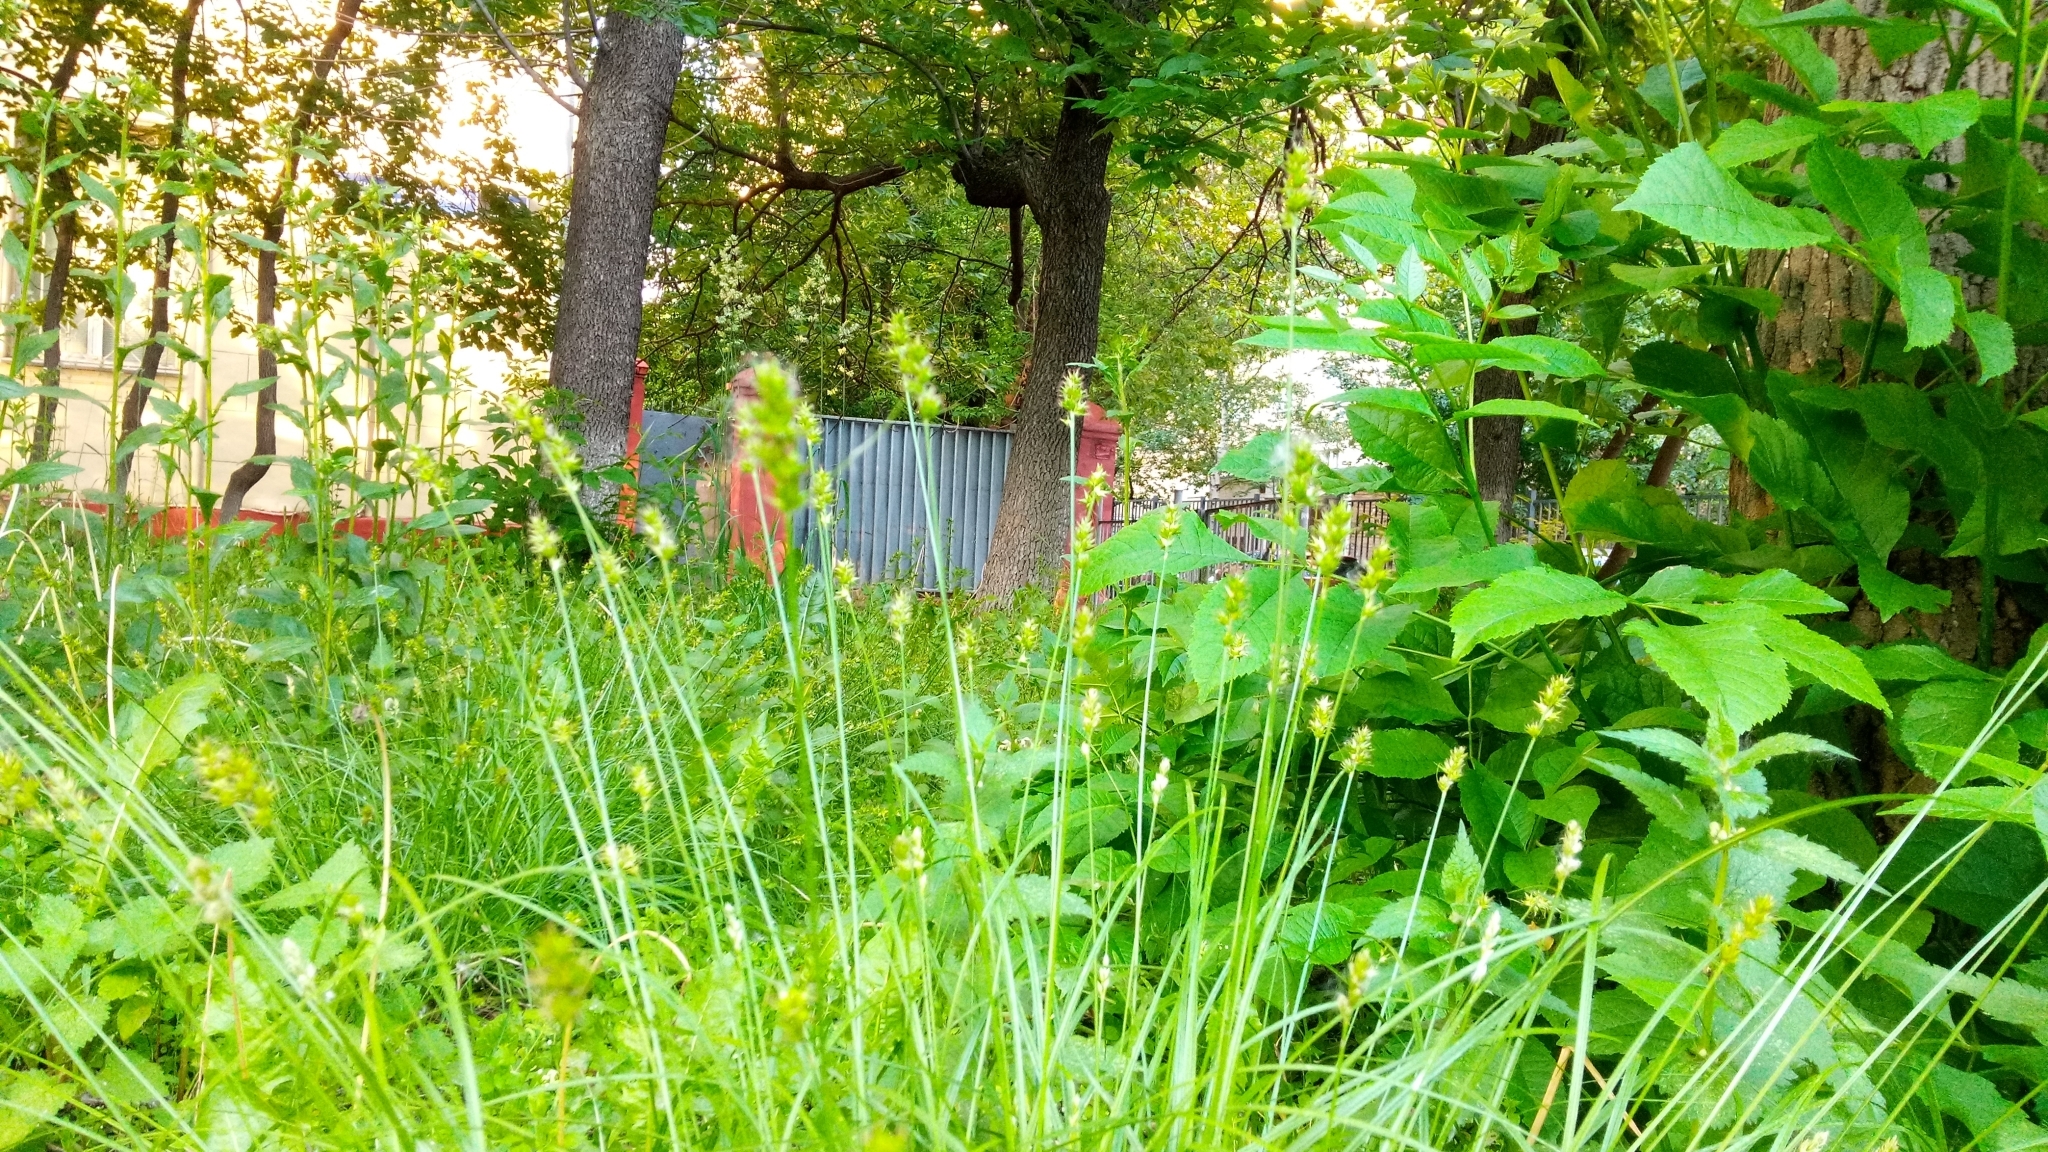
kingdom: Plantae
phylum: Tracheophyta
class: Liliopsida
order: Poales
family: Cyperaceae
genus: Carex
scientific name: Carex spicata
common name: Spiked sedge
